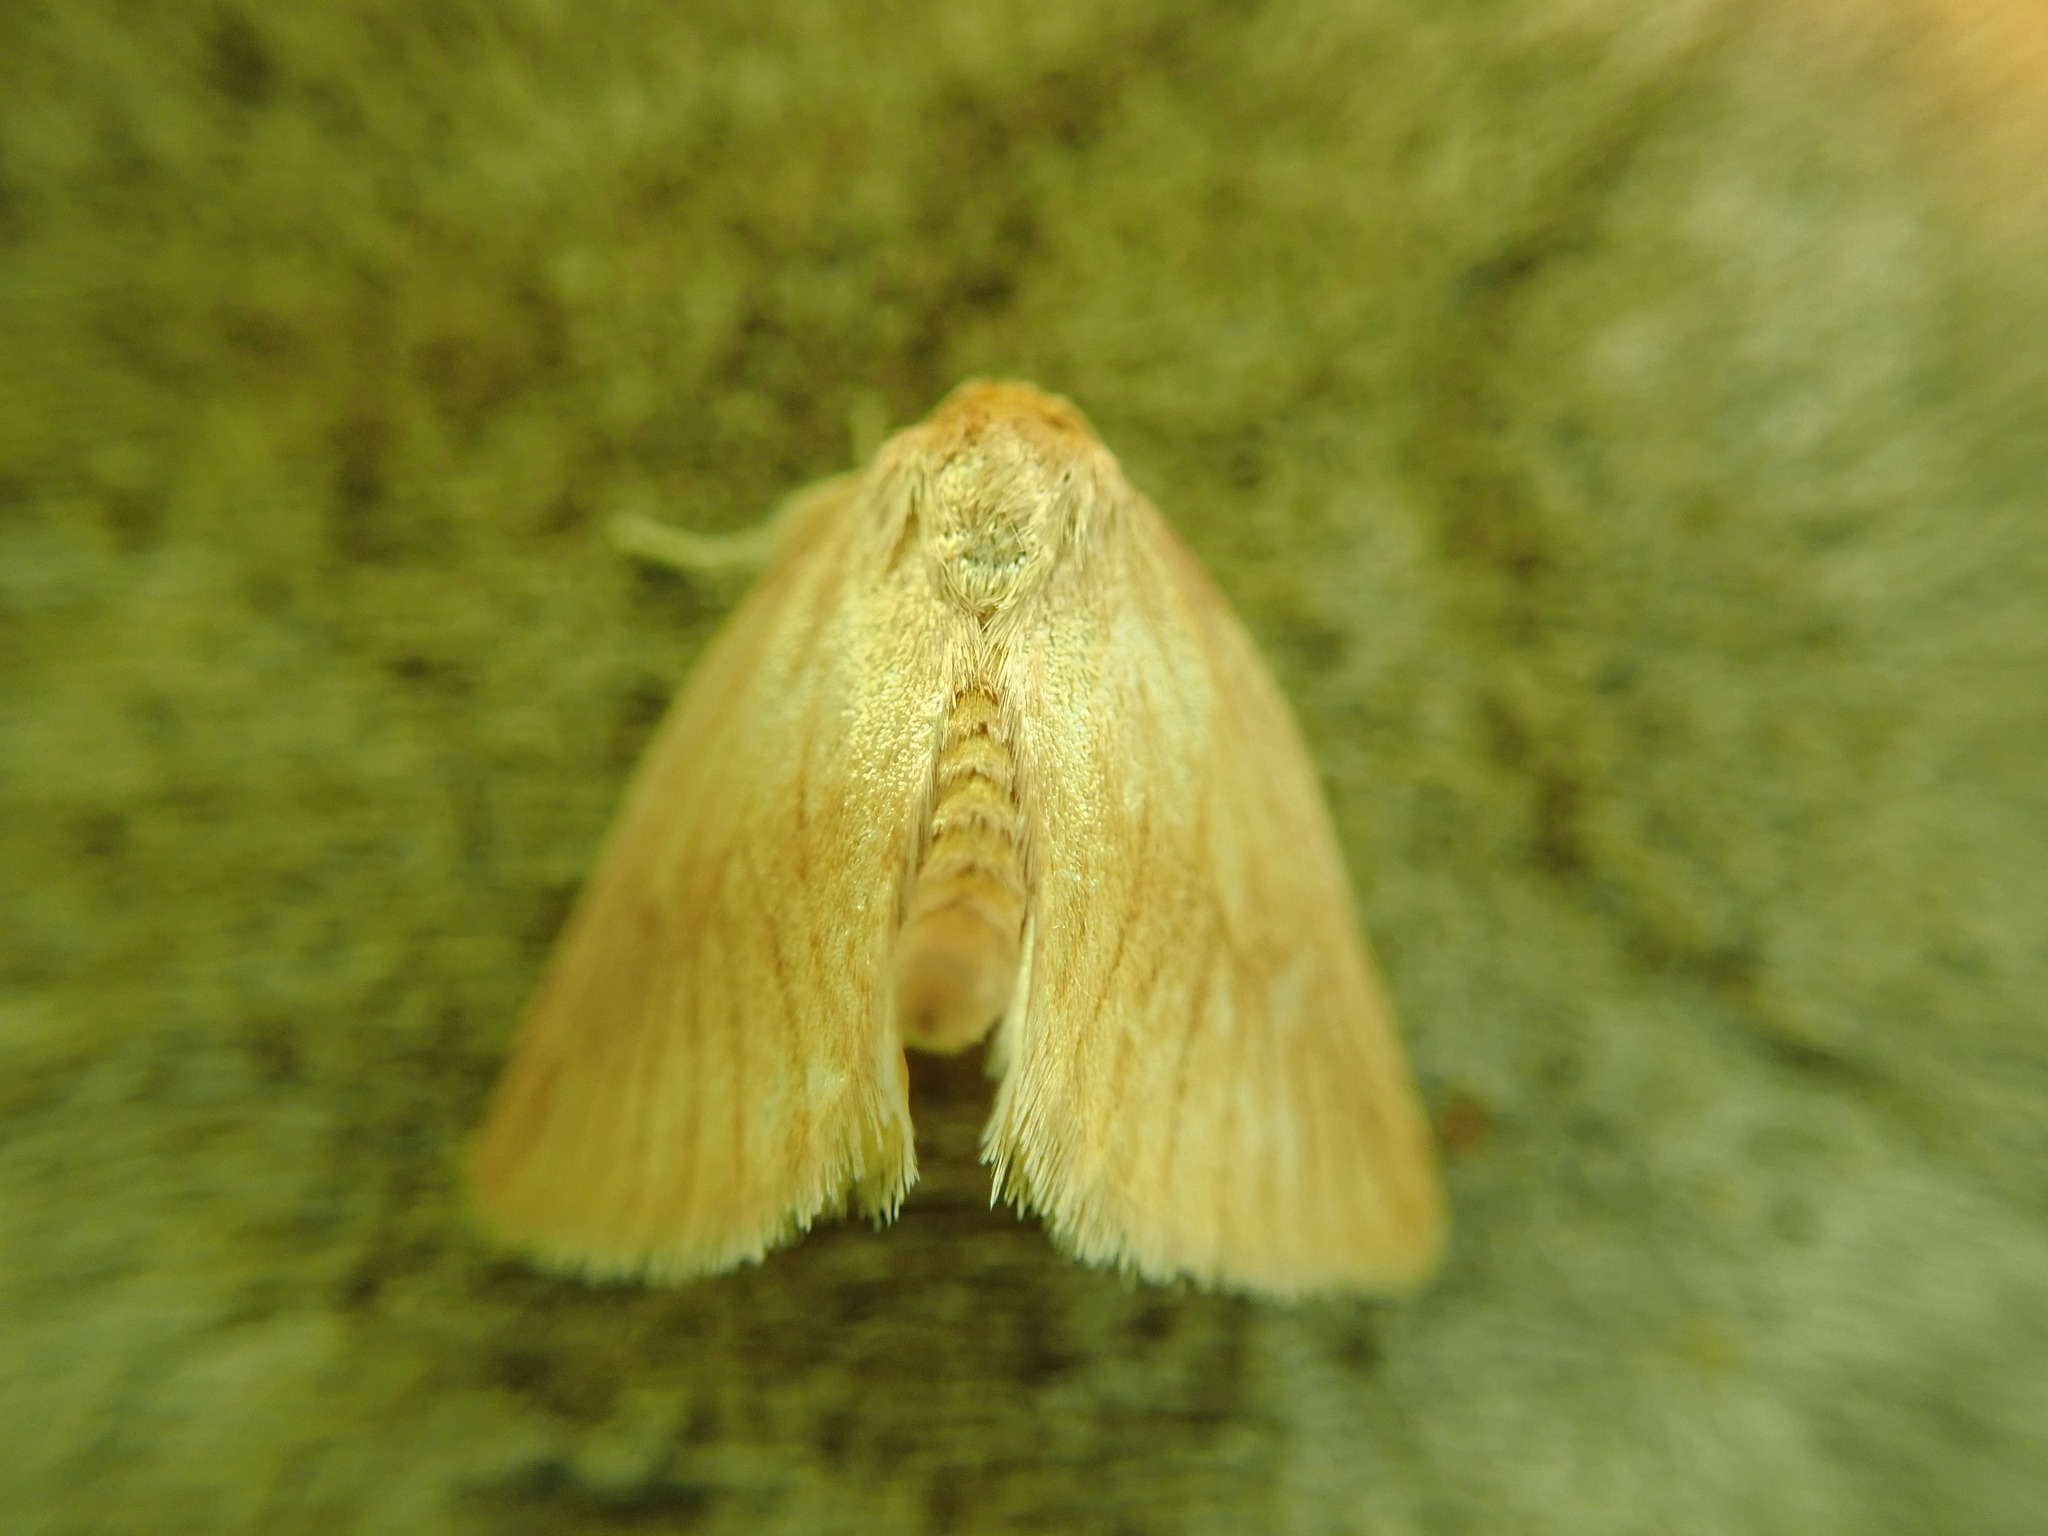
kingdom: Animalia
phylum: Arthropoda
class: Insecta
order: Lepidoptera
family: Limacodidae
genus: Tortricidia
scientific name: Tortricidia testacea
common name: Early button slug moth
